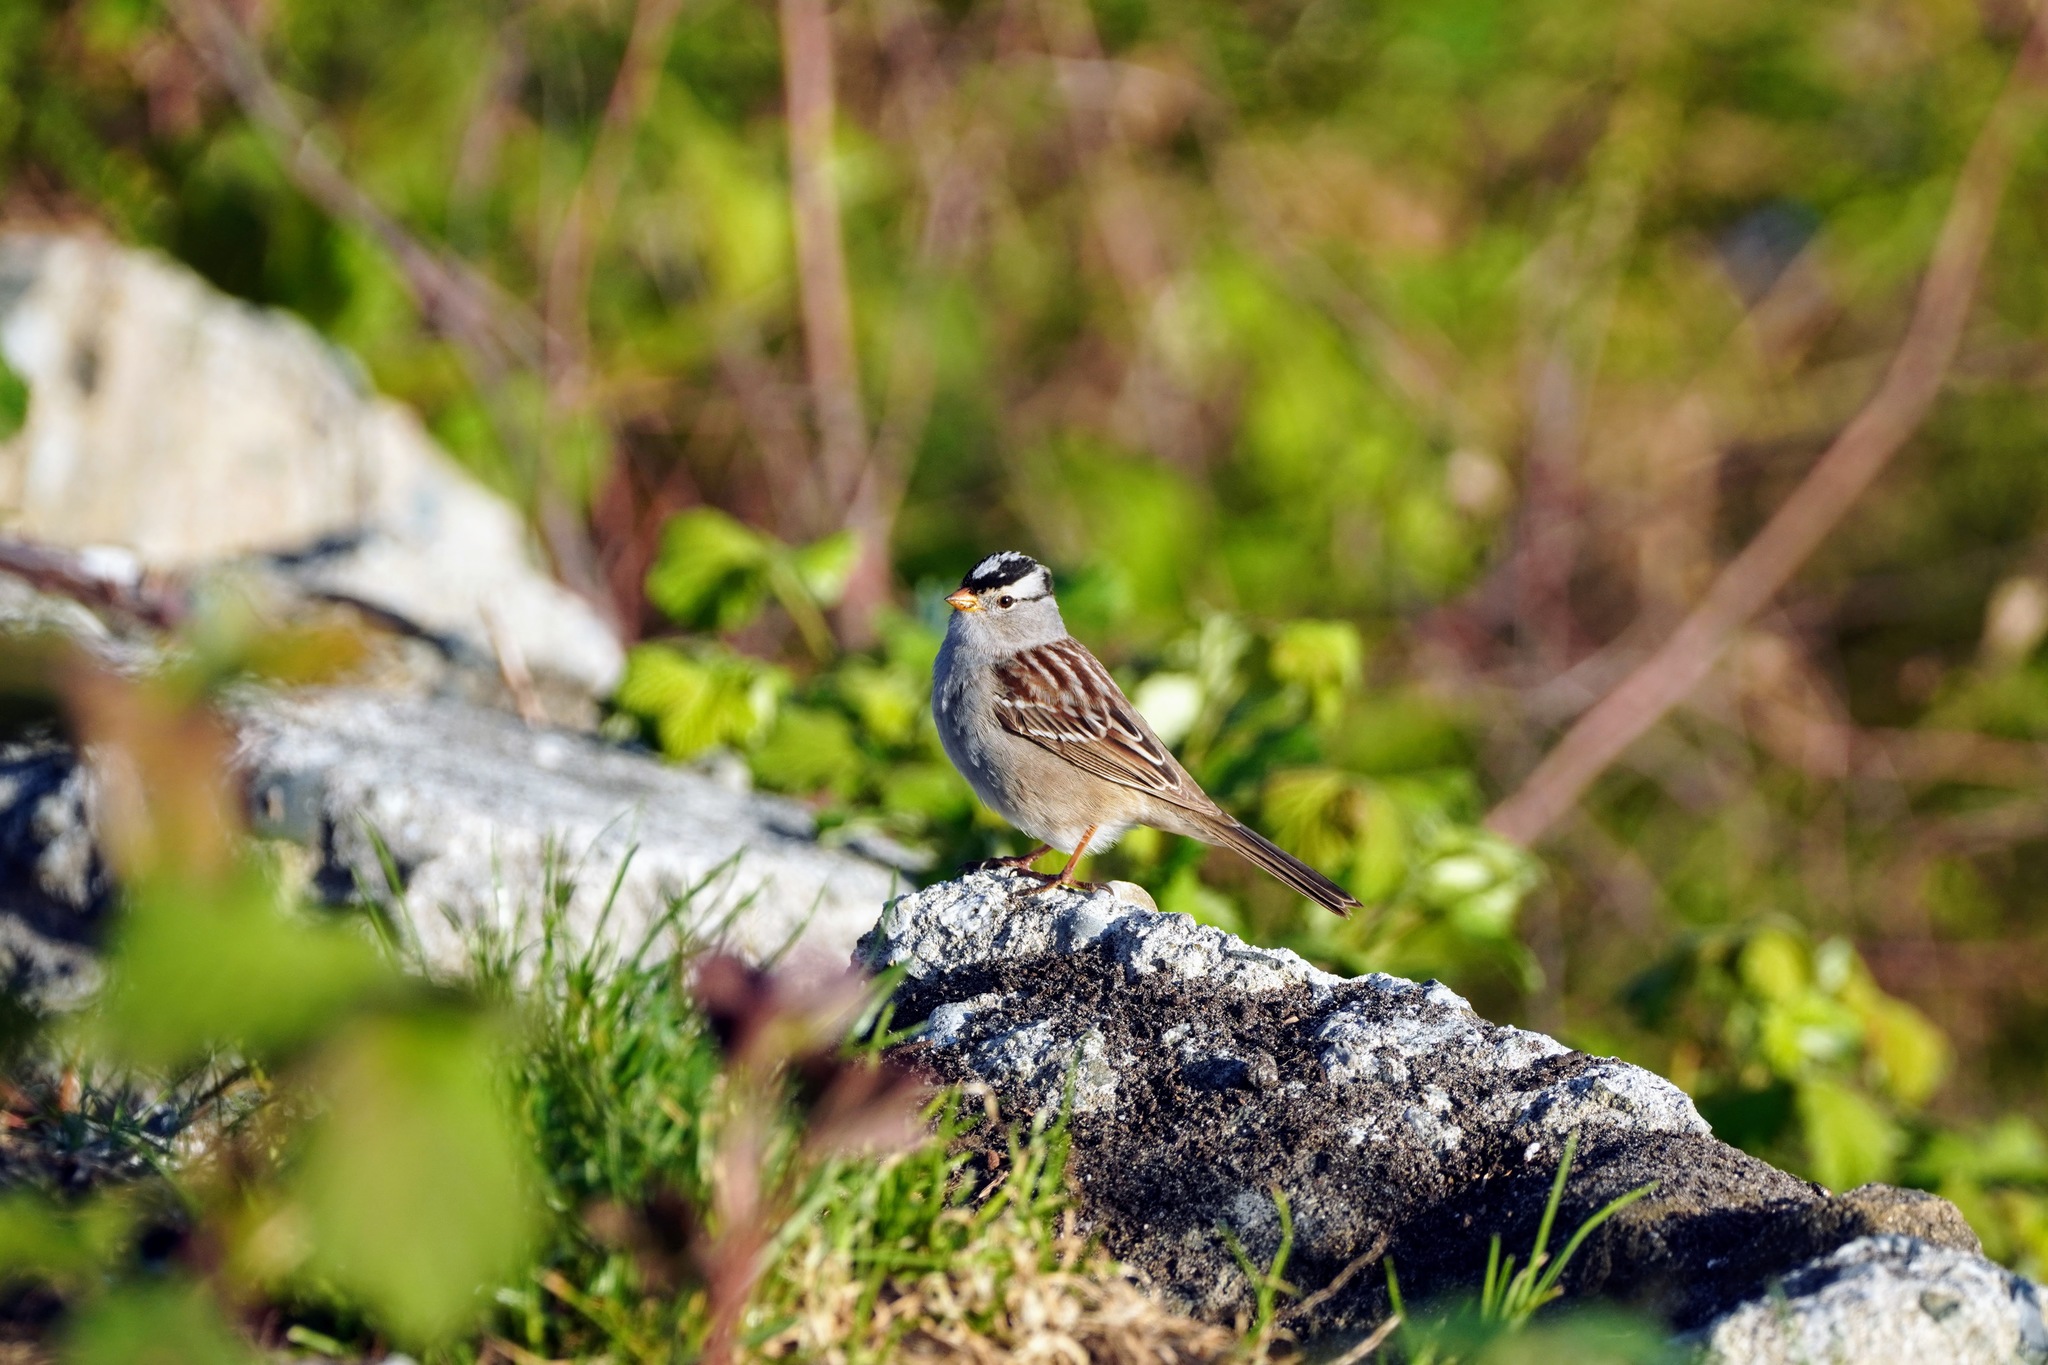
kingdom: Animalia
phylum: Chordata
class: Aves
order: Passeriformes
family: Passerellidae
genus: Zonotrichia
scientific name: Zonotrichia leucophrys
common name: White-crowned sparrow
